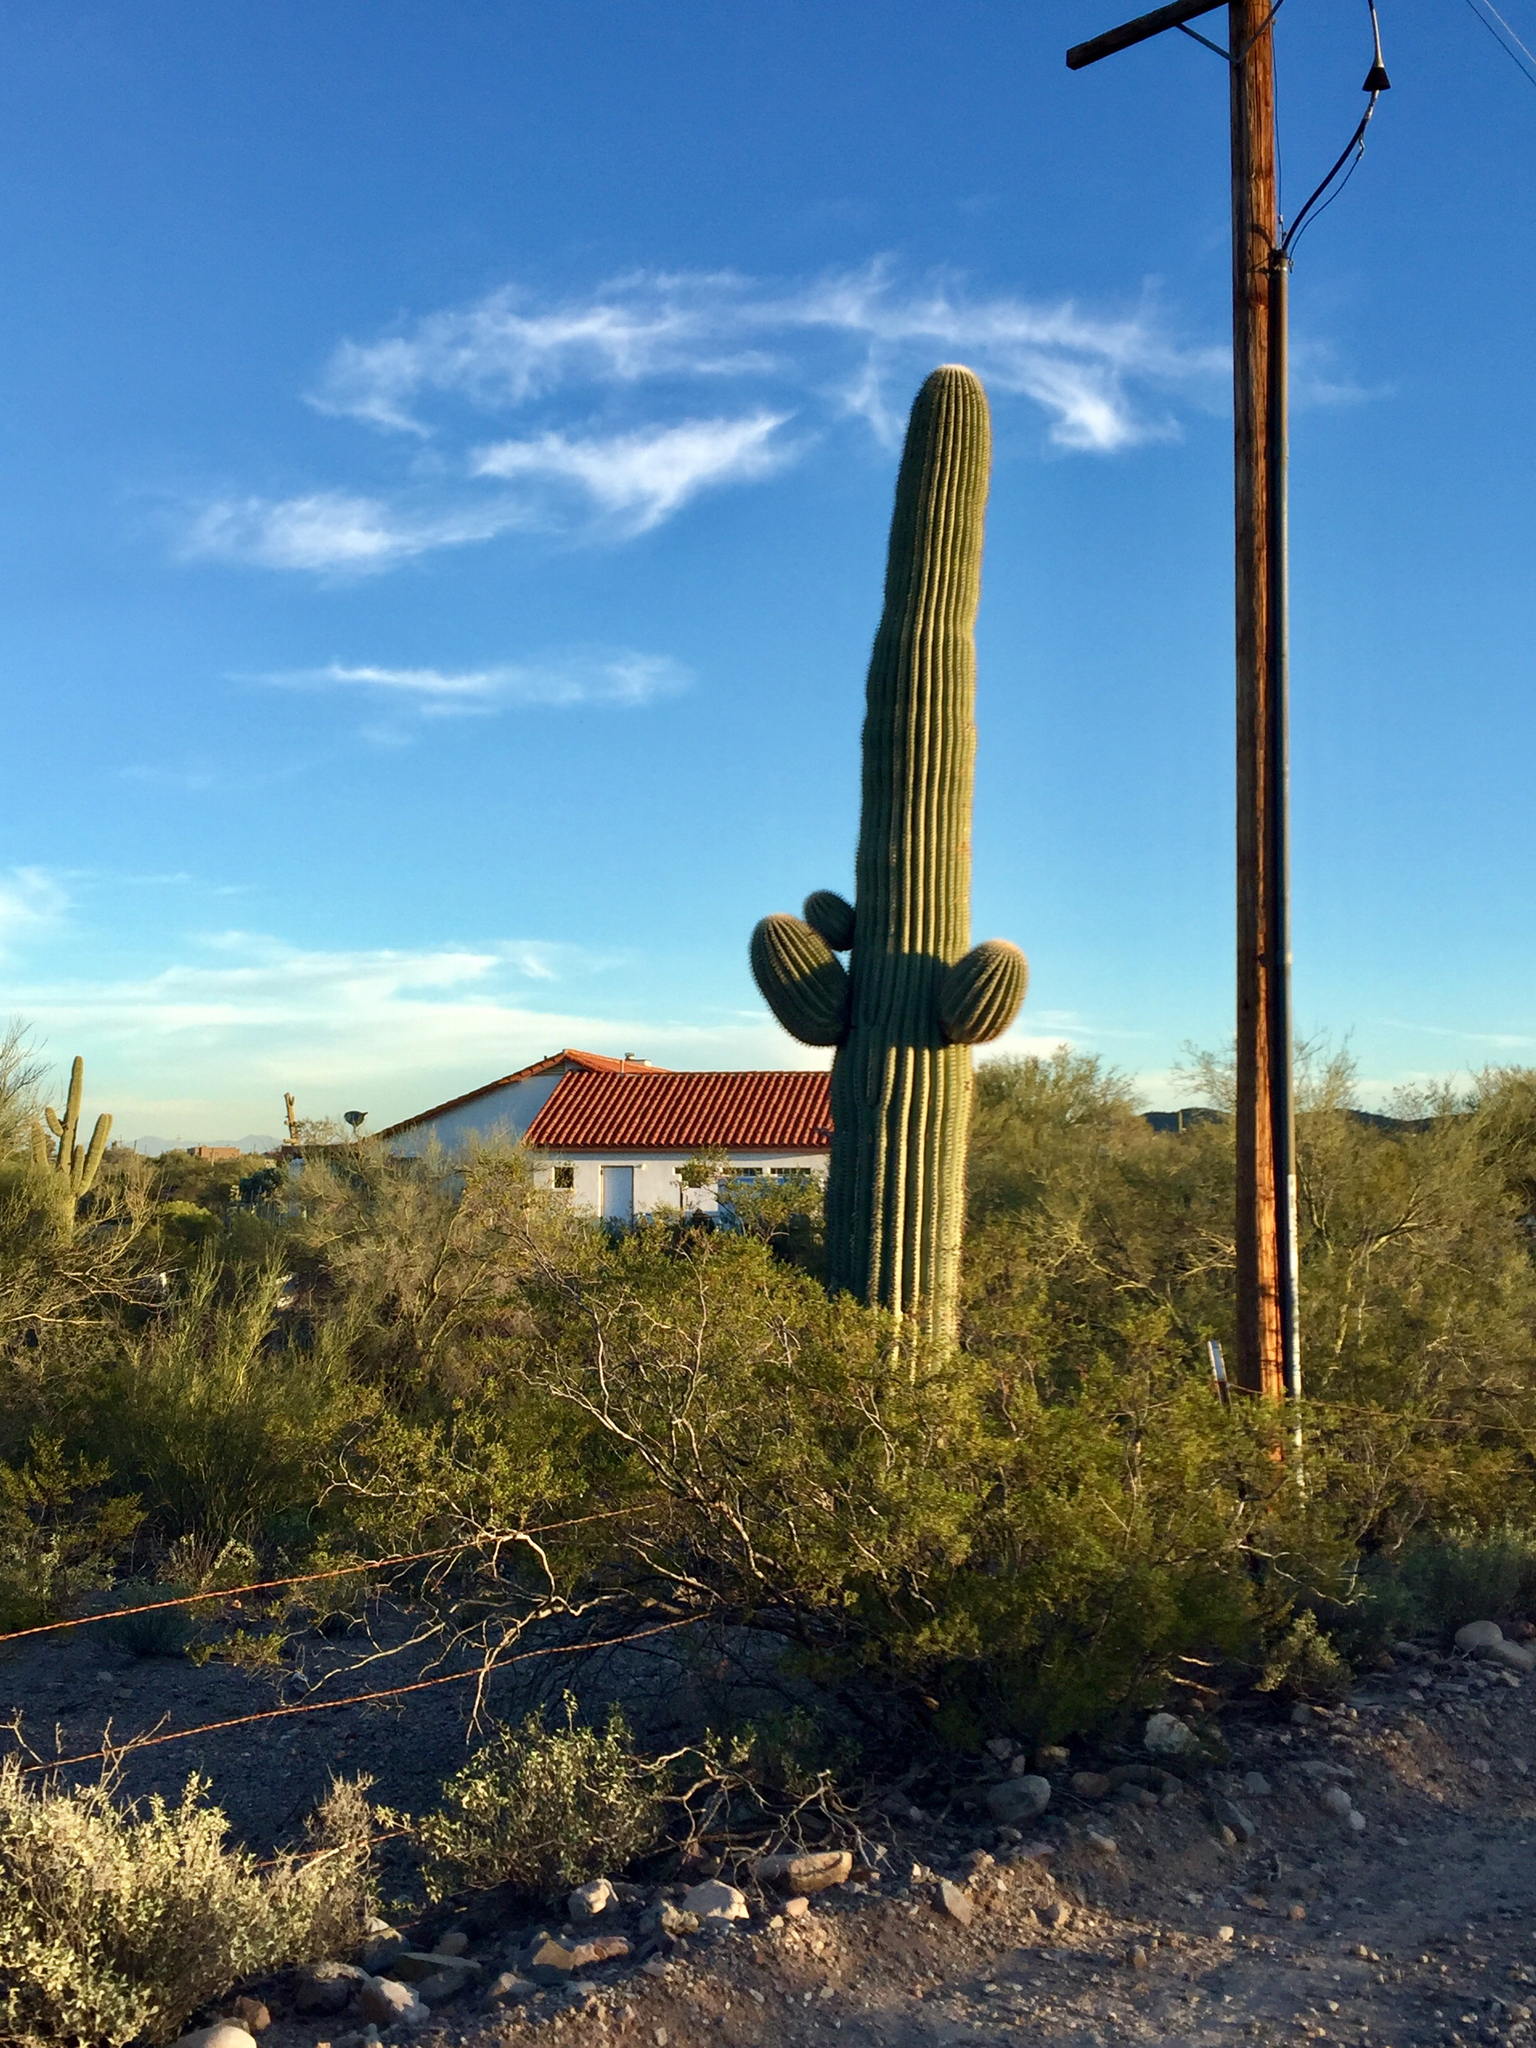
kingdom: Plantae
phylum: Tracheophyta
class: Magnoliopsida
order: Caryophyllales
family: Cactaceae
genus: Carnegiea
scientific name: Carnegiea gigantea
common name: Saguaro
